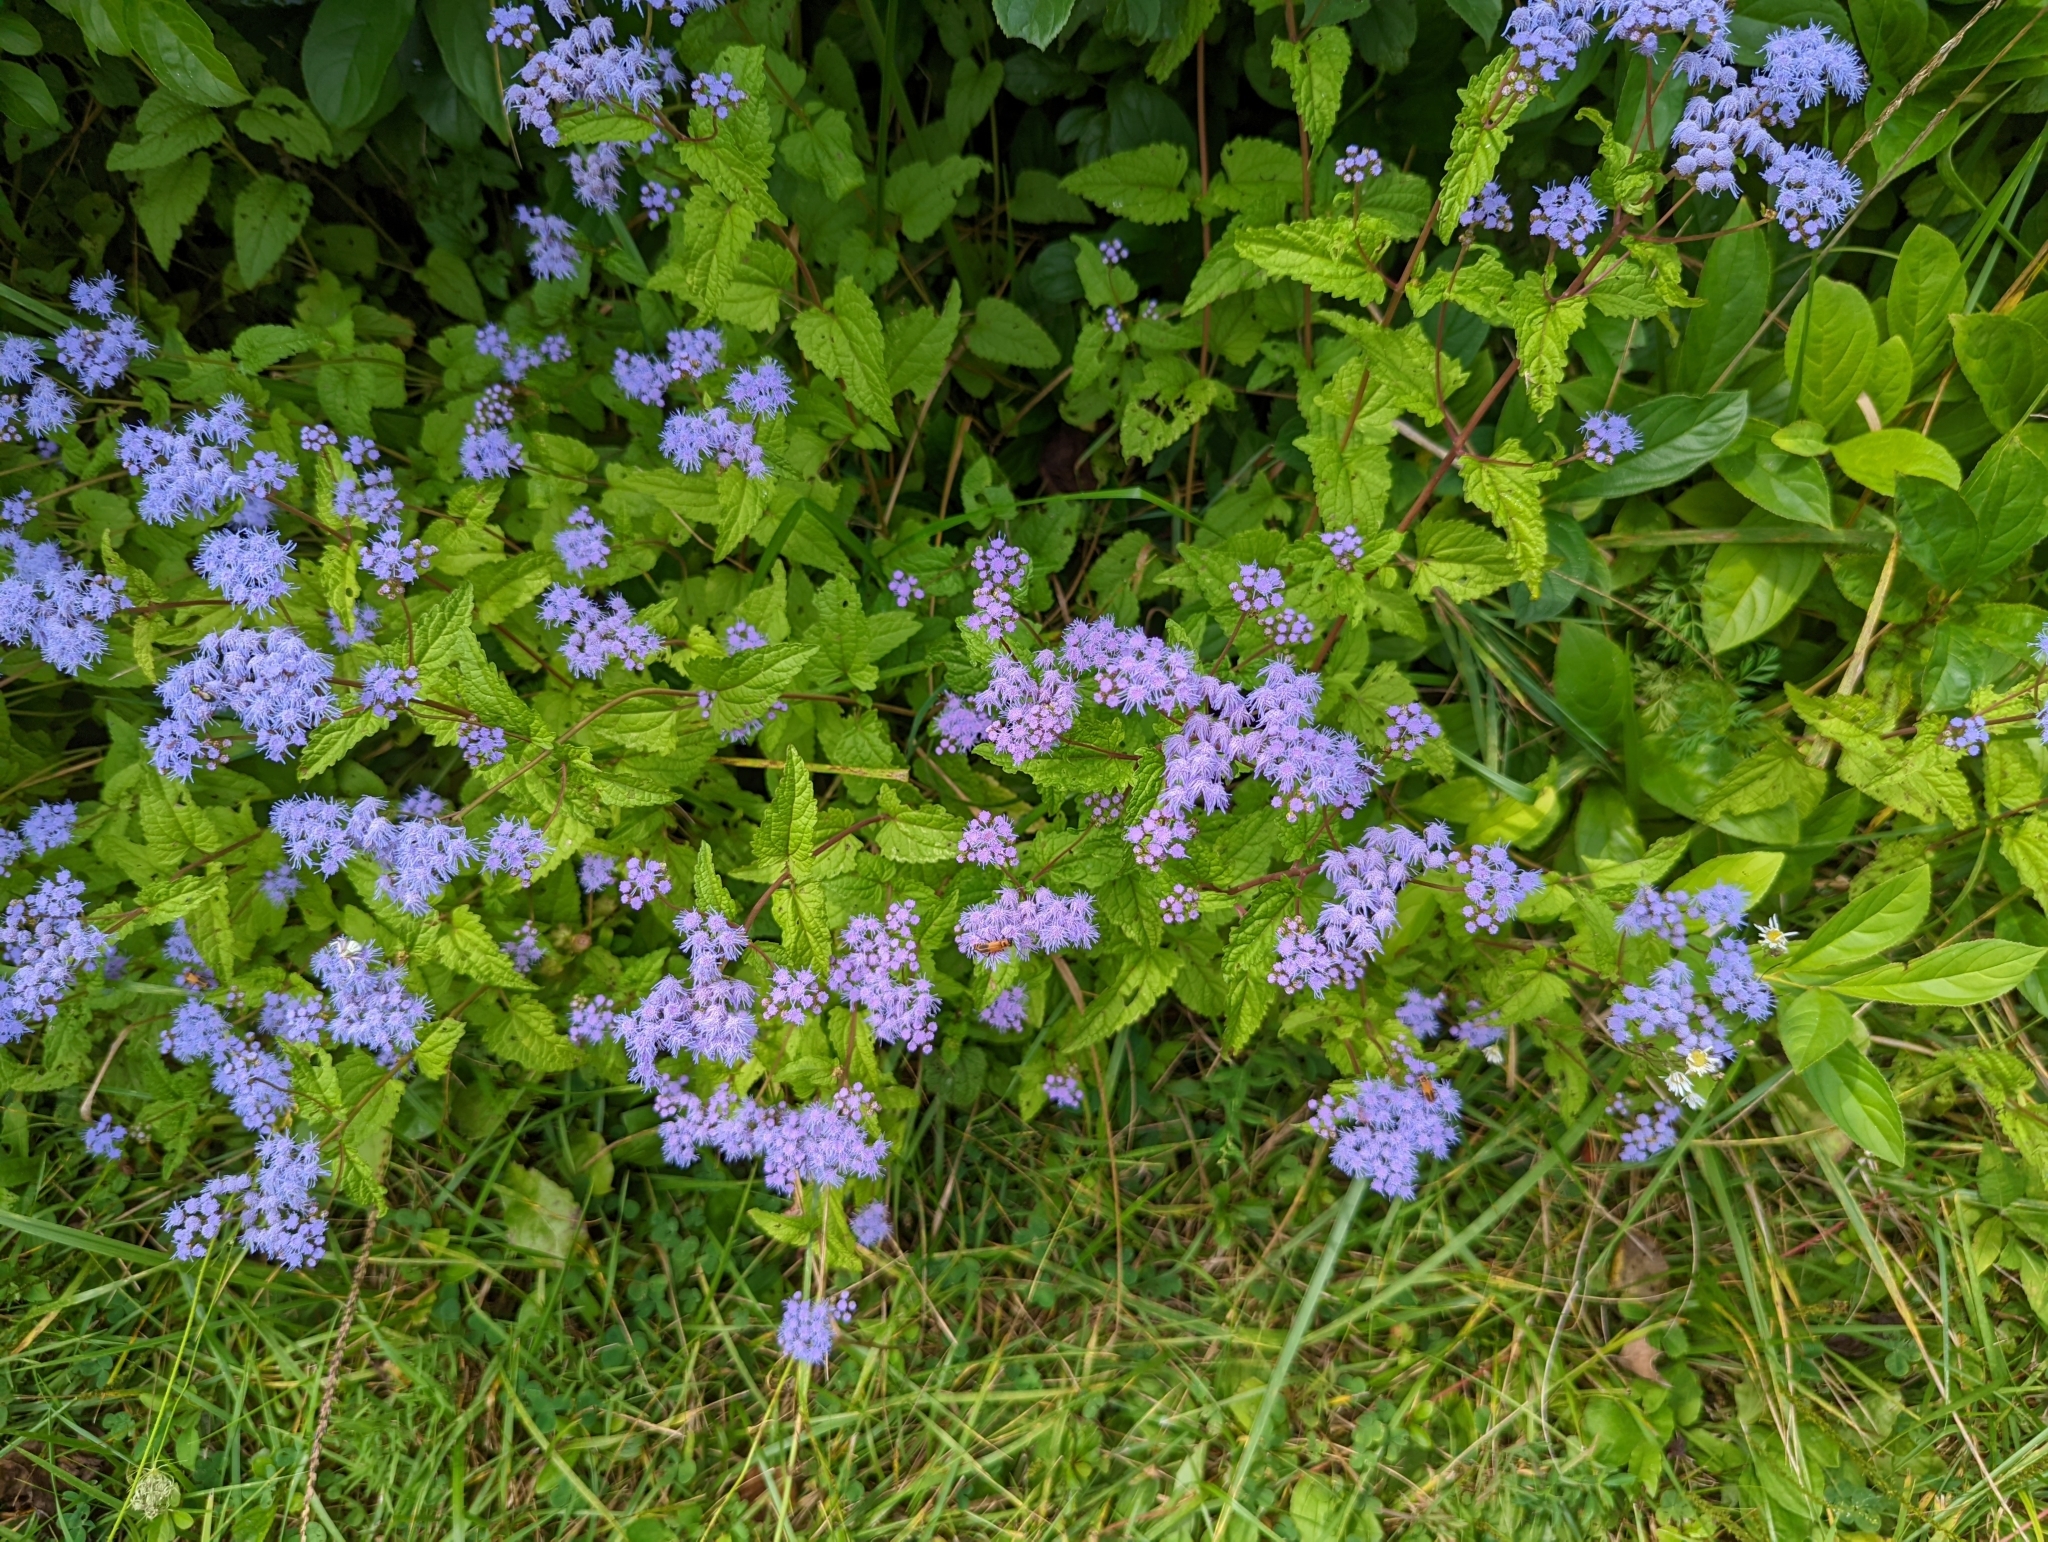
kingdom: Plantae
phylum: Tracheophyta
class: Magnoliopsida
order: Asterales
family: Asteraceae
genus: Conoclinium
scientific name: Conoclinium coelestinum
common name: Blue mistflower
